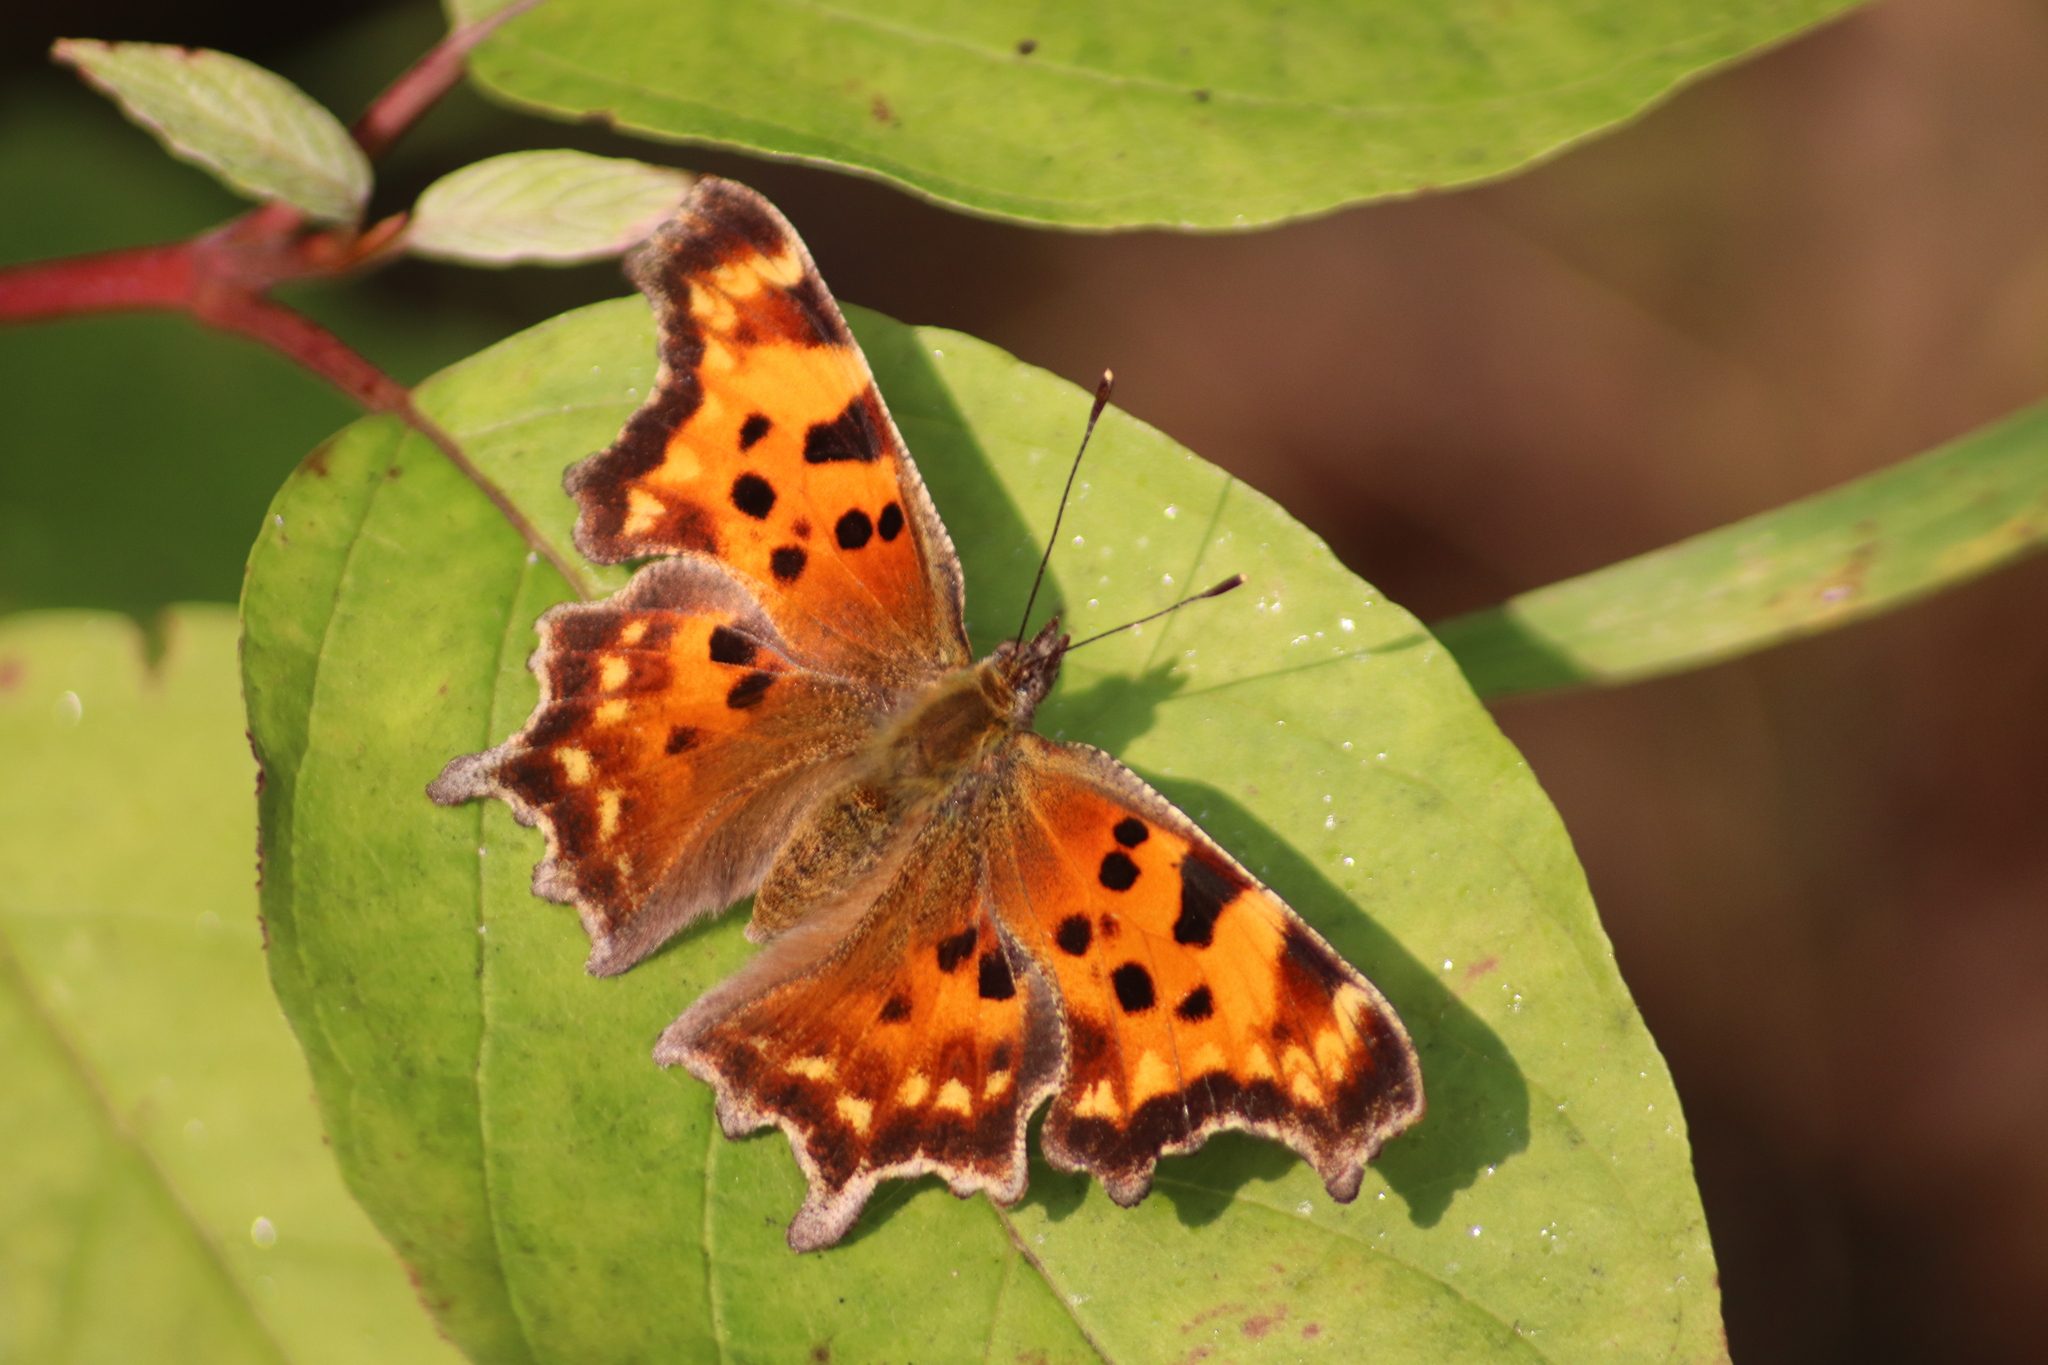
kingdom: Animalia
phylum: Arthropoda
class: Insecta
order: Lepidoptera
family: Nymphalidae
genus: Polygonia
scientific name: Polygonia faunus
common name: Green comma
